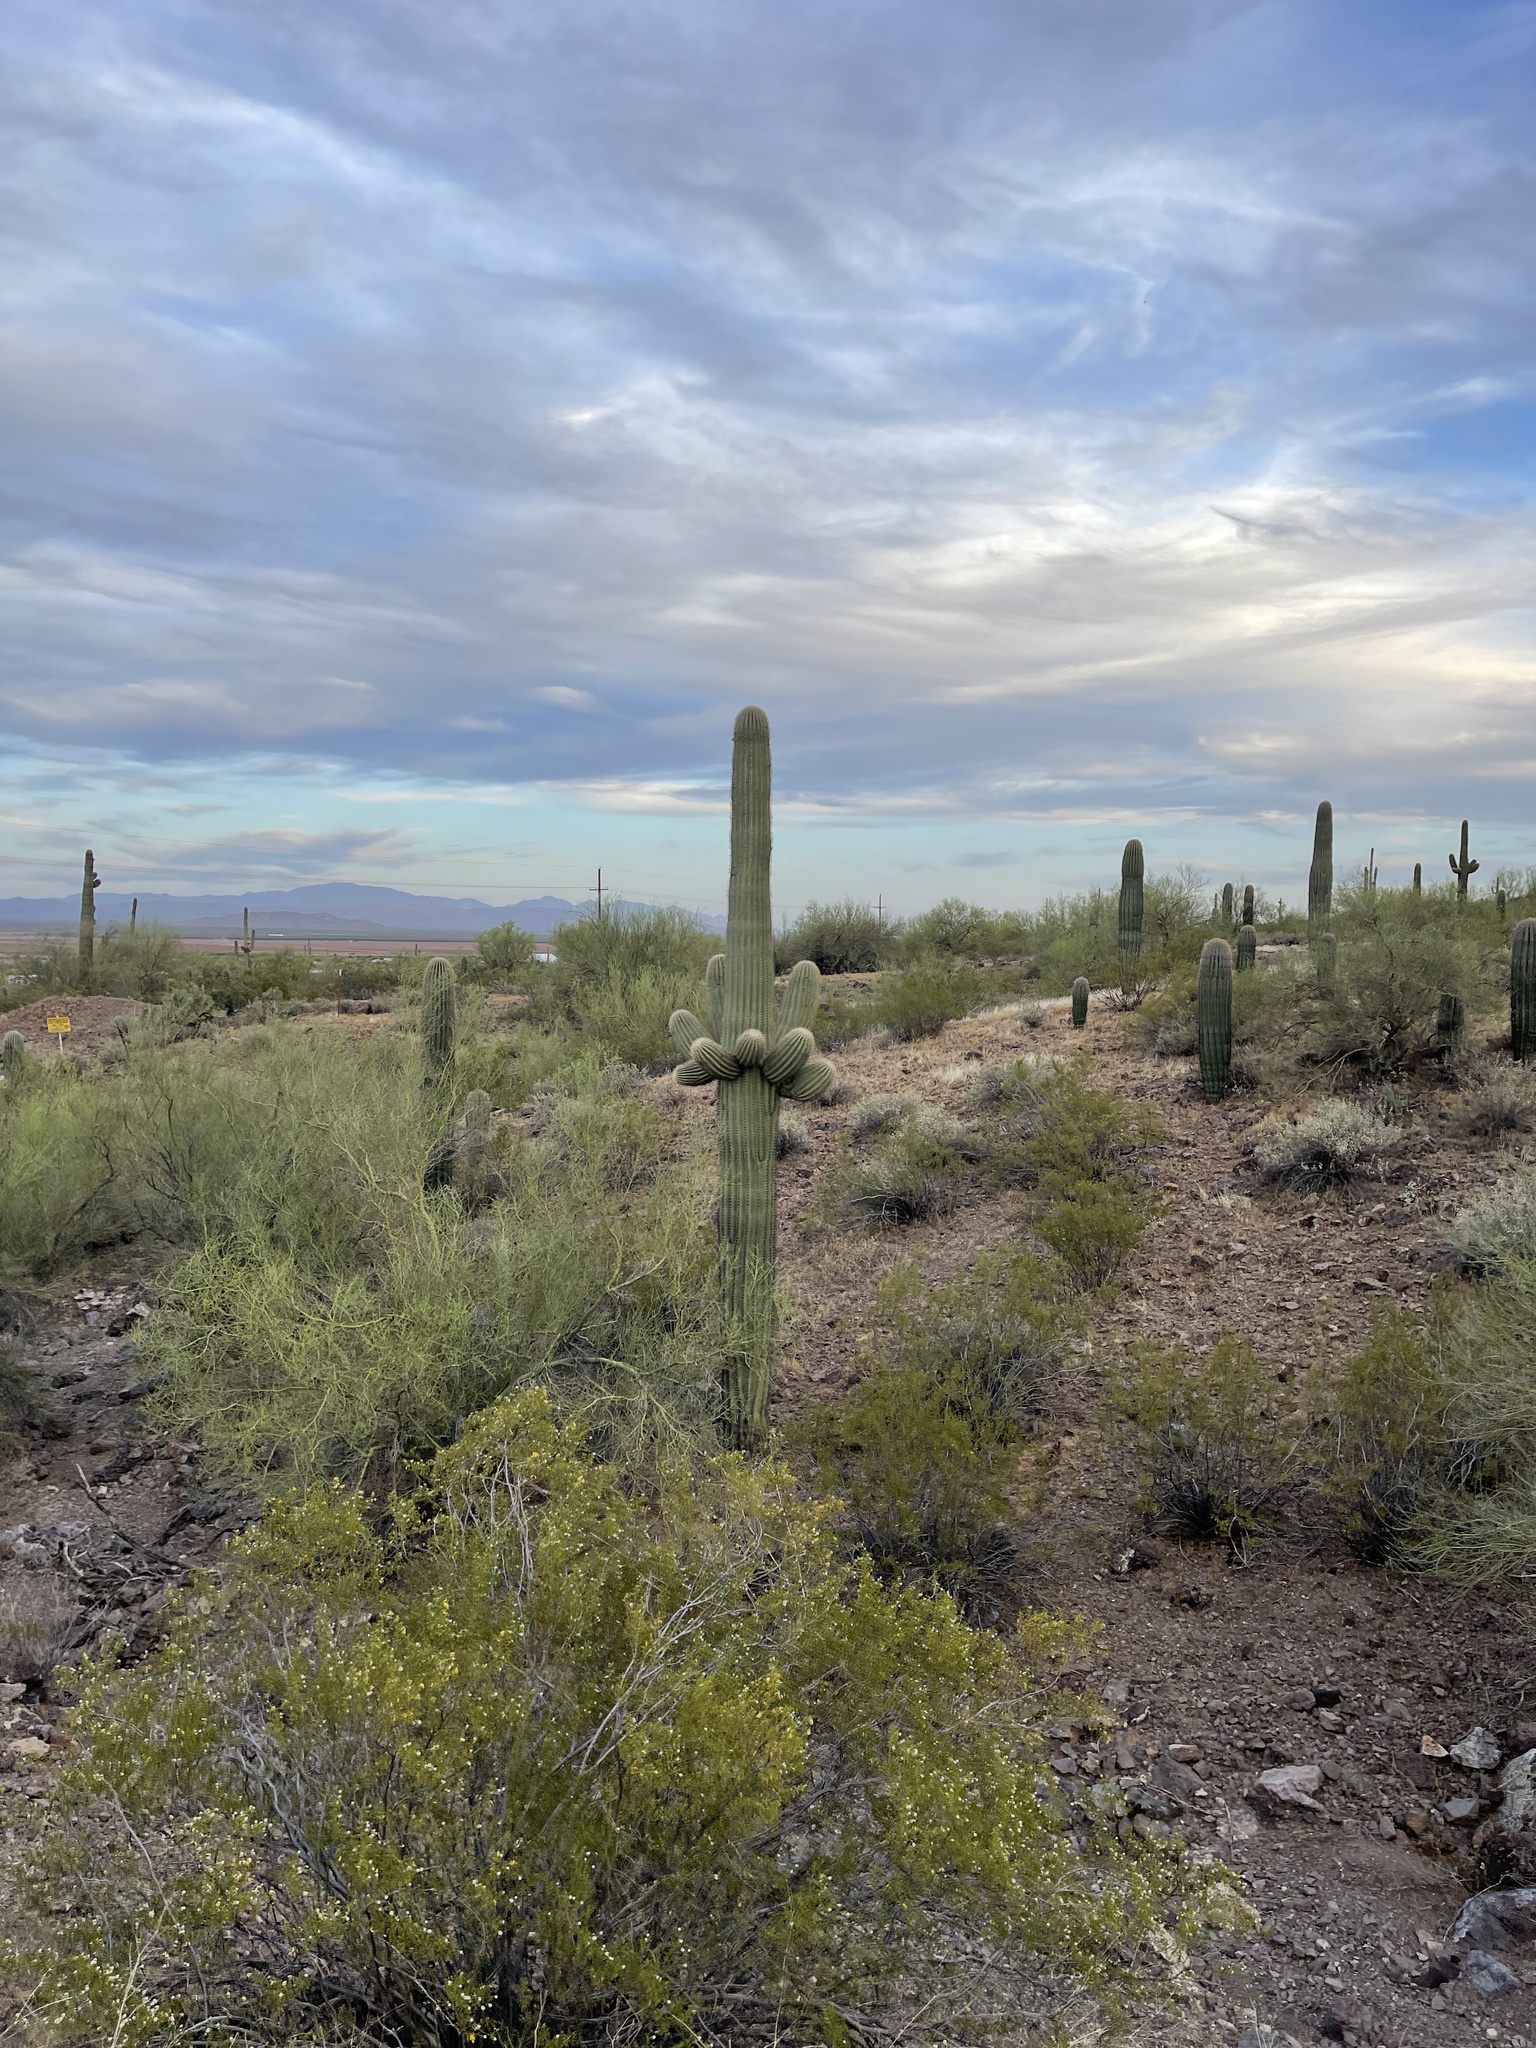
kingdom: Plantae
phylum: Tracheophyta
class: Magnoliopsida
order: Caryophyllales
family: Cactaceae
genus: Carnegiea
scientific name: Carnegiea gigantea
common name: Saguaro
